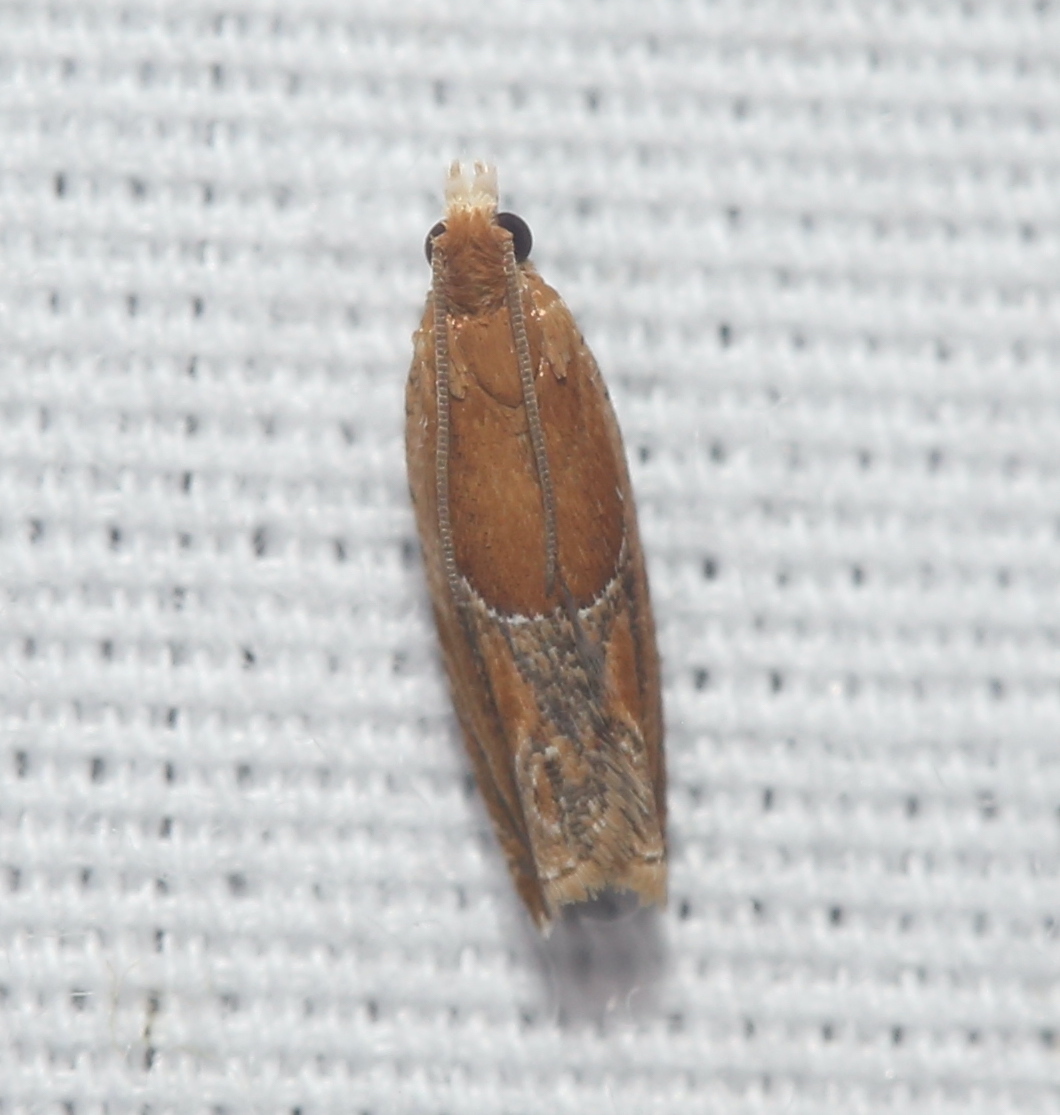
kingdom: Animalia
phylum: Arthropoda
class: Insecta
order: Lepidoptera
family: Tortricidae
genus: Ancylis
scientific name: Ancylis comptana
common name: Little roller
